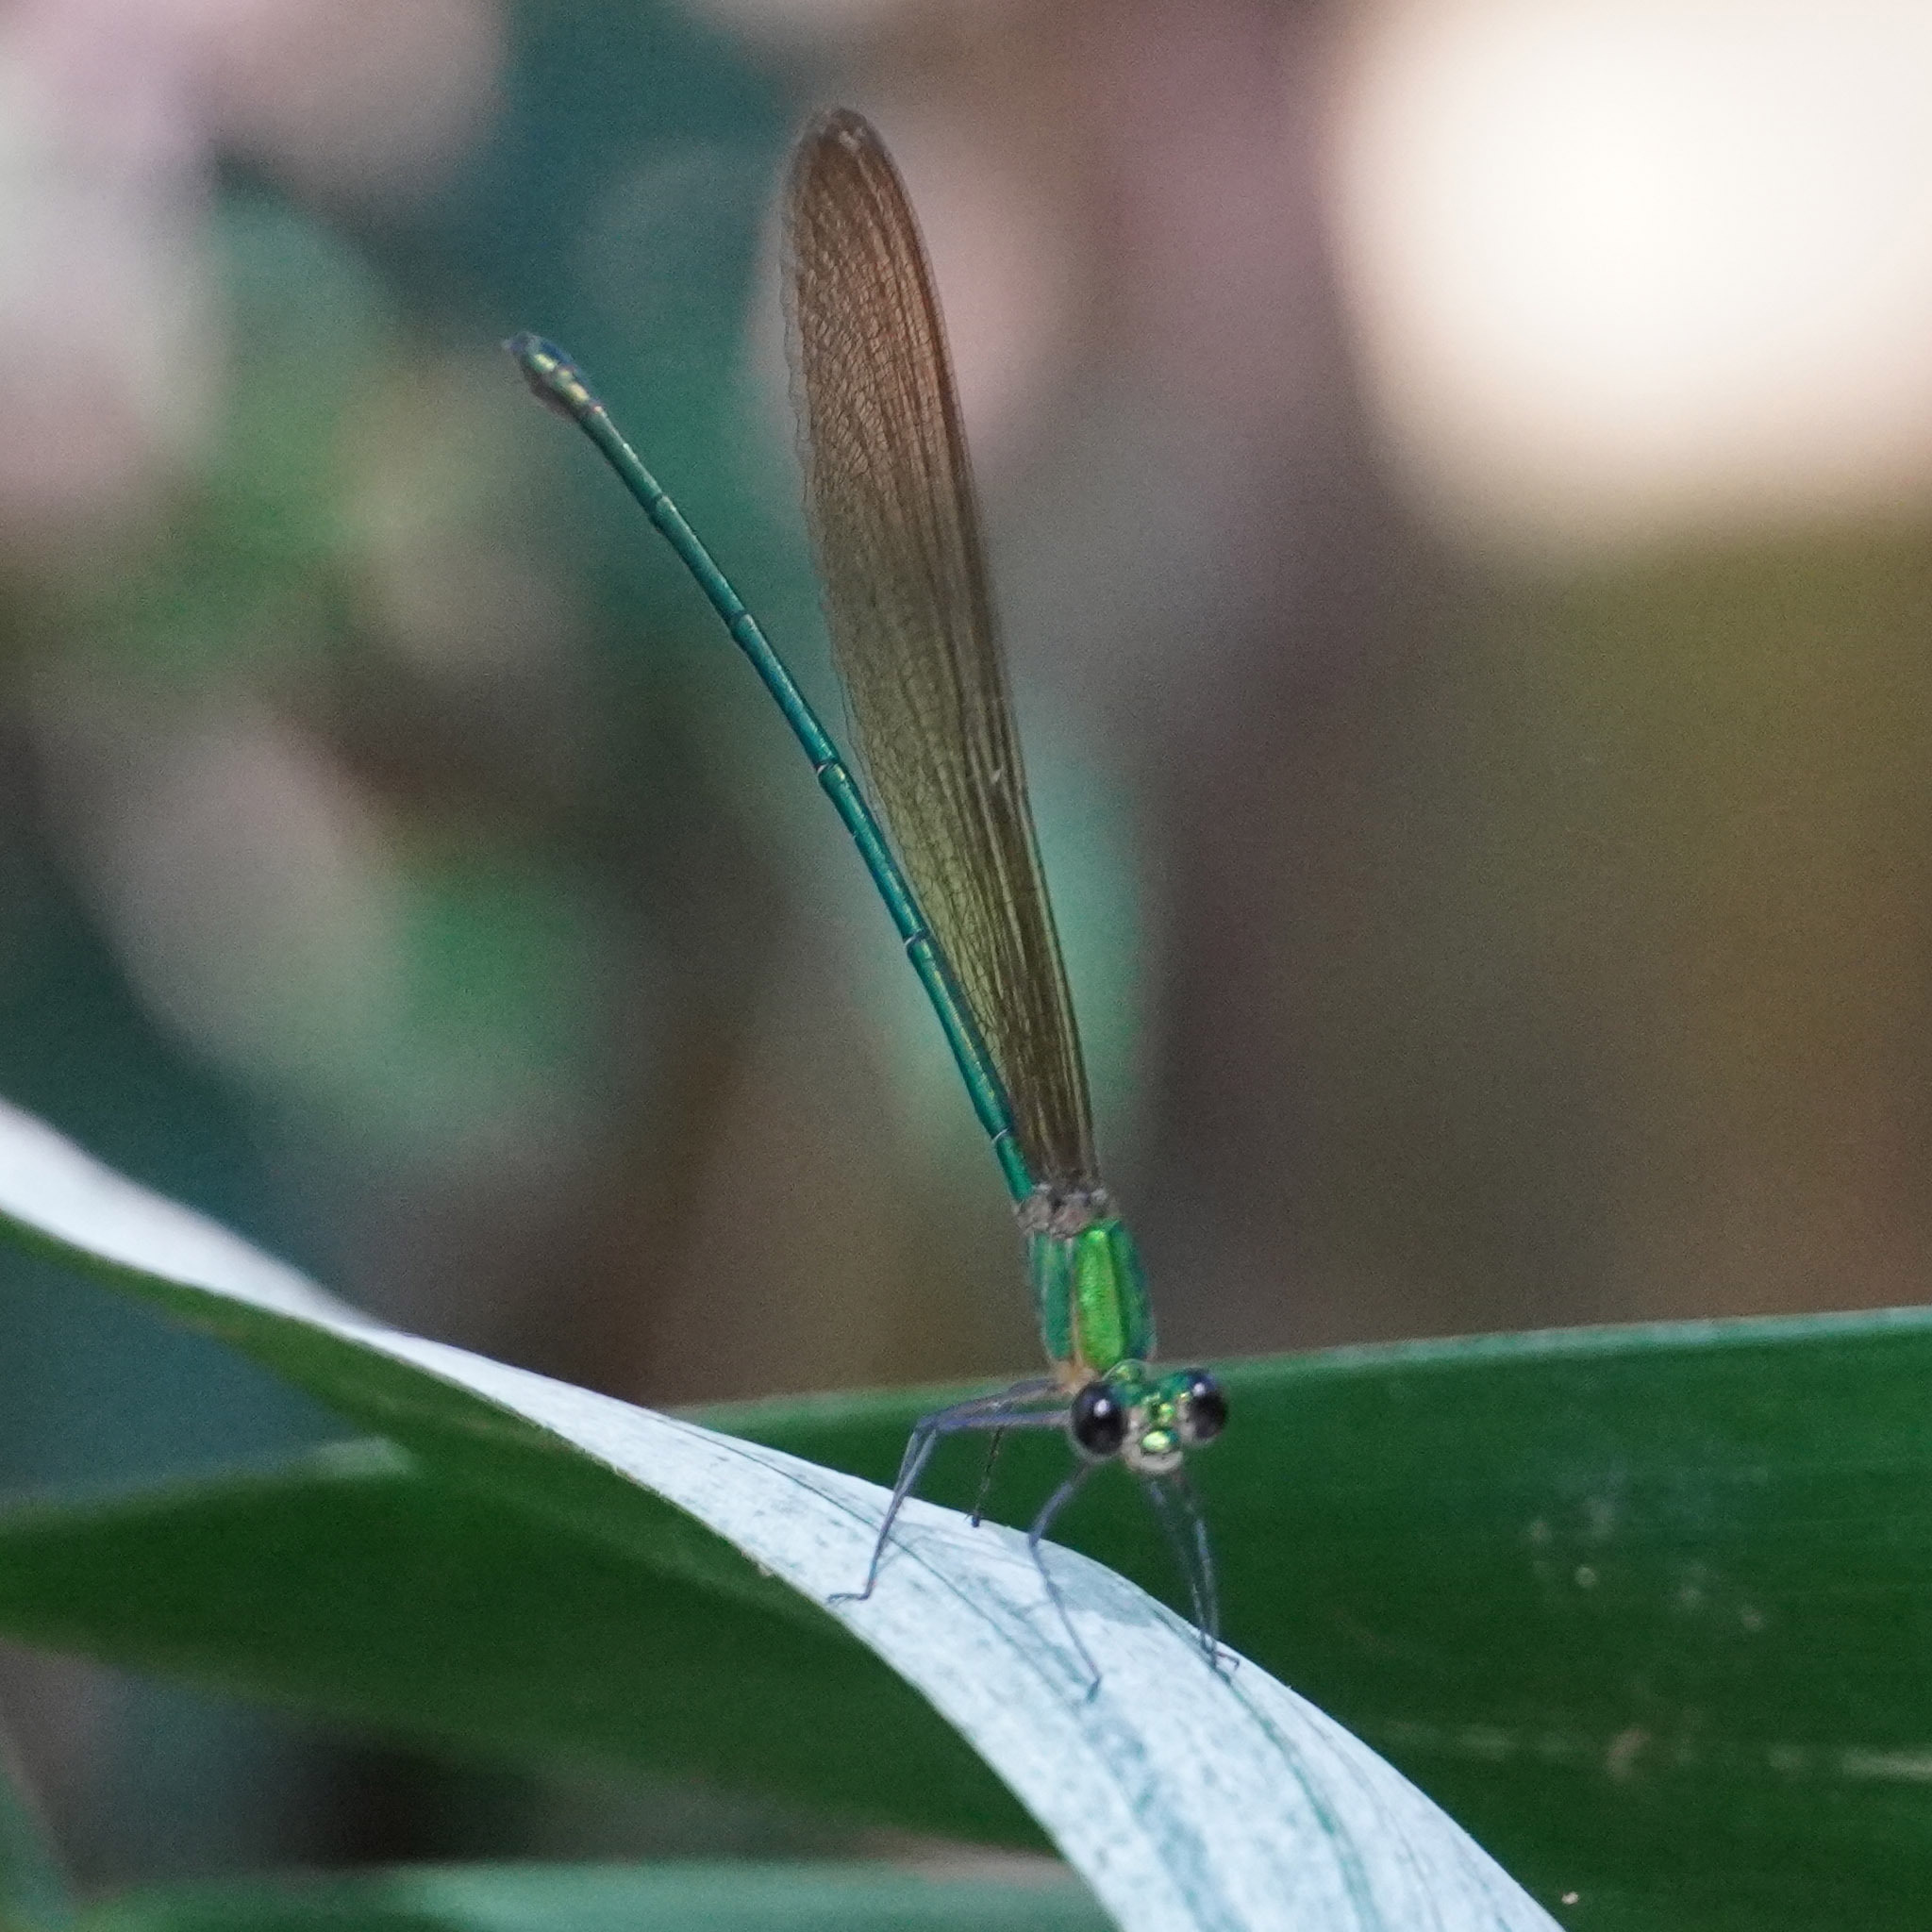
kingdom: Animalia
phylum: Arthropoda
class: Insecta
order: Odonata
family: Calopterygidae
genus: Vestalis
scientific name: Vestalis gracilis
